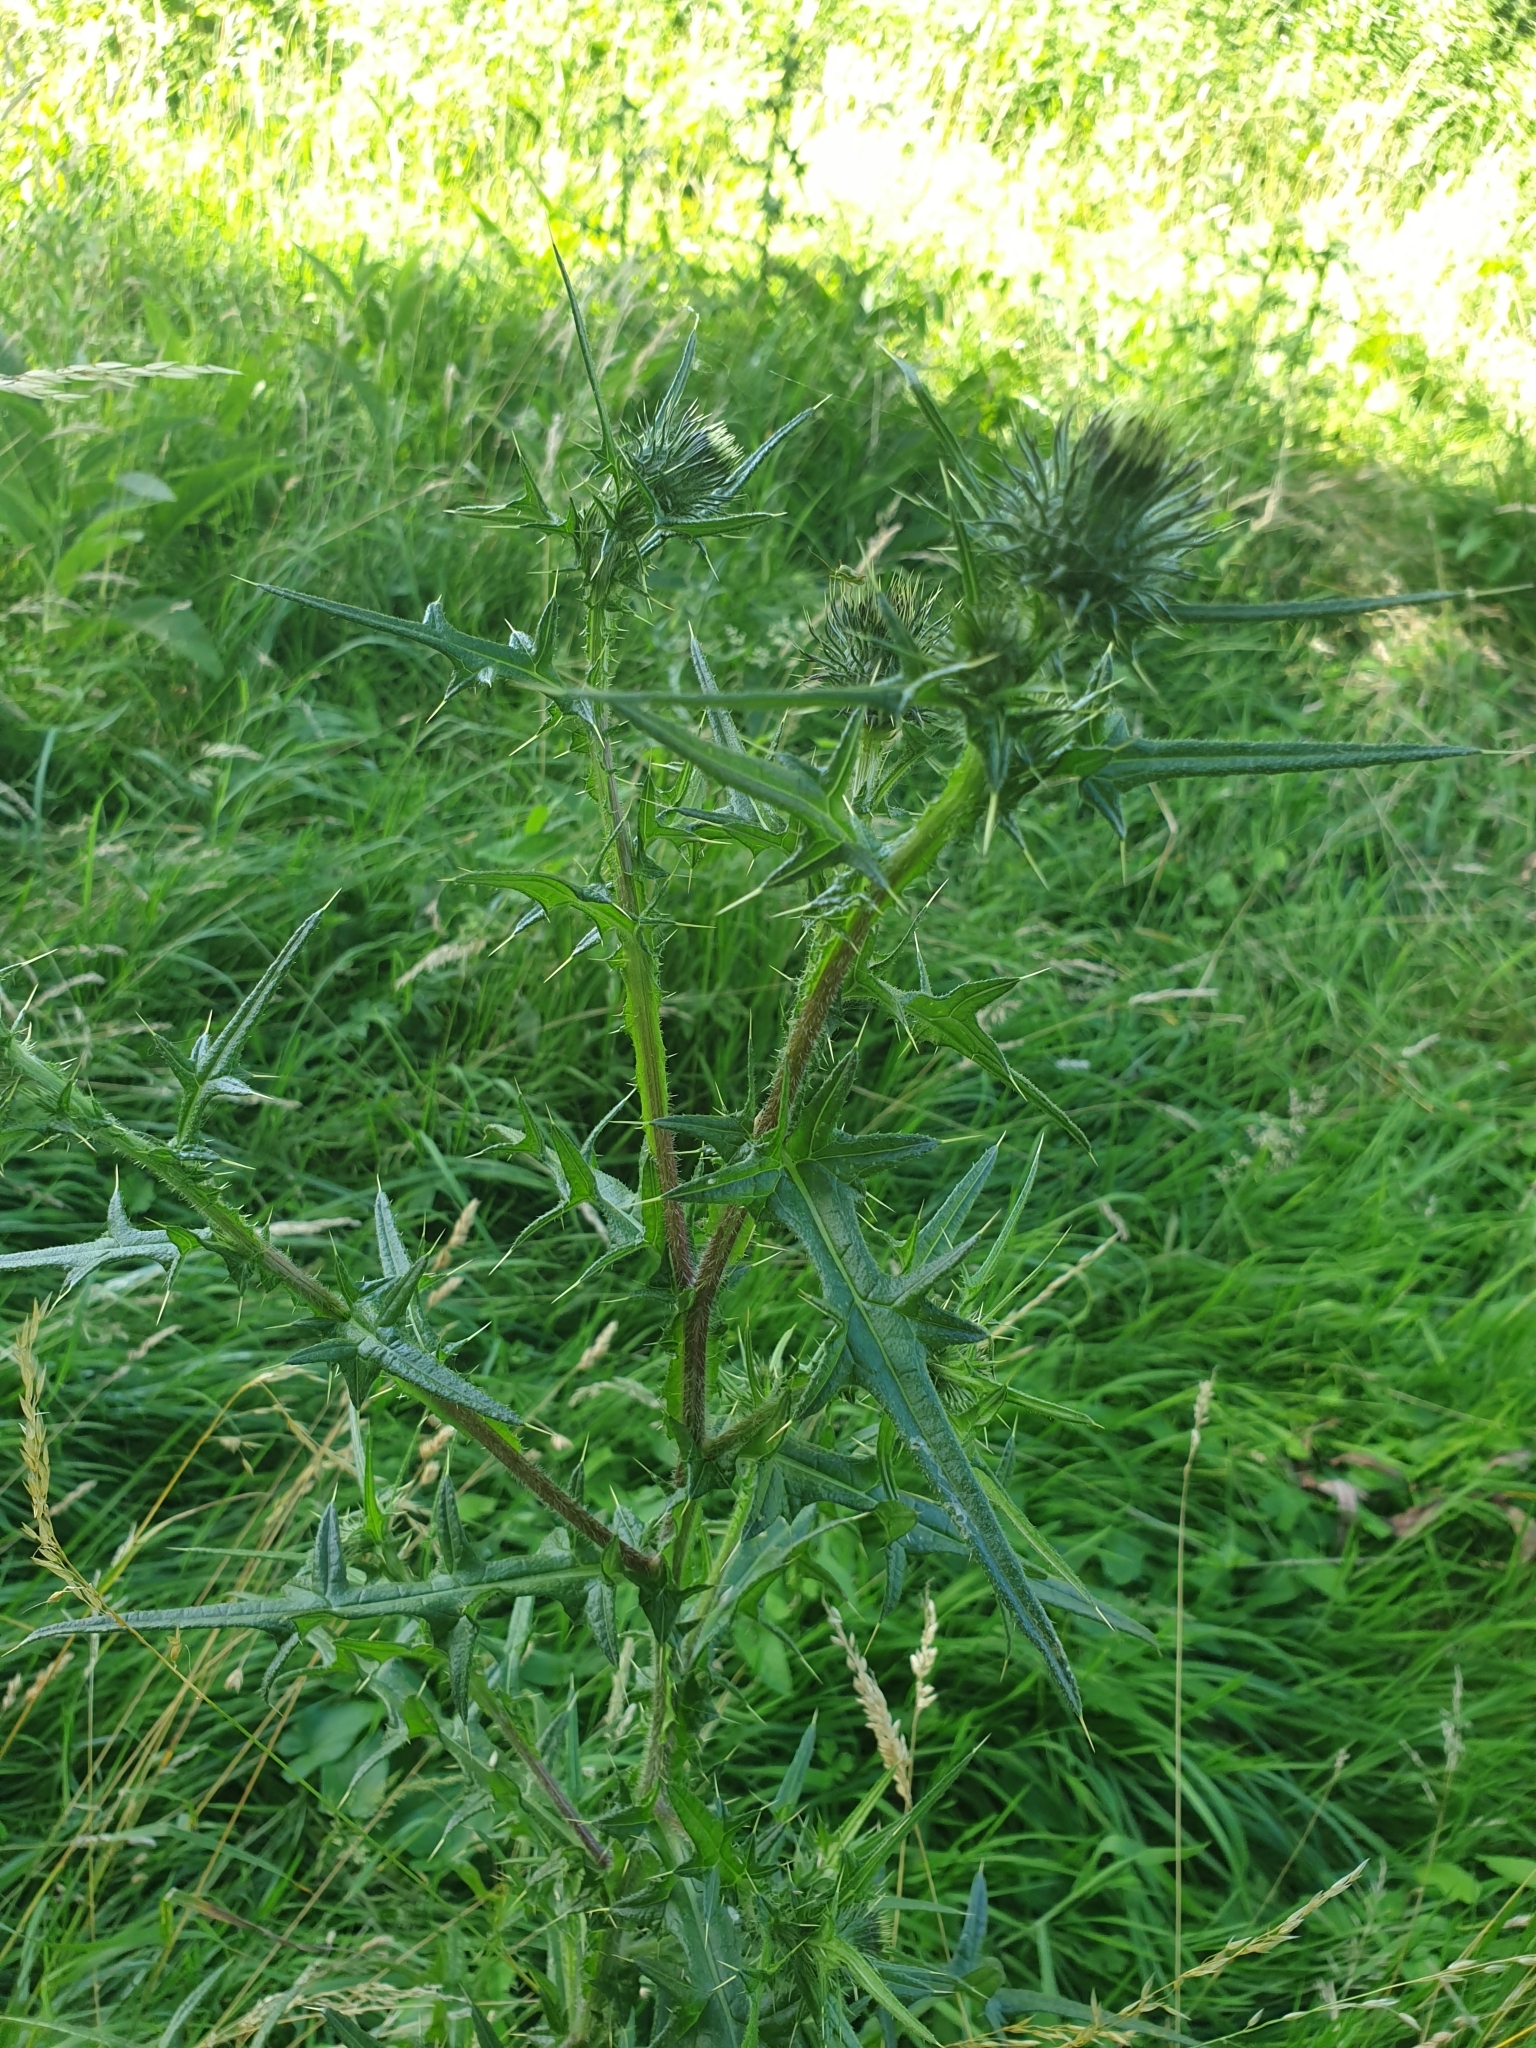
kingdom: Plantae
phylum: Tracheophyta
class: Magnoliopsida
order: Asterales
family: Asteraceae
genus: Cirsium
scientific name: Cirsium vulgare
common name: Bull thistle
